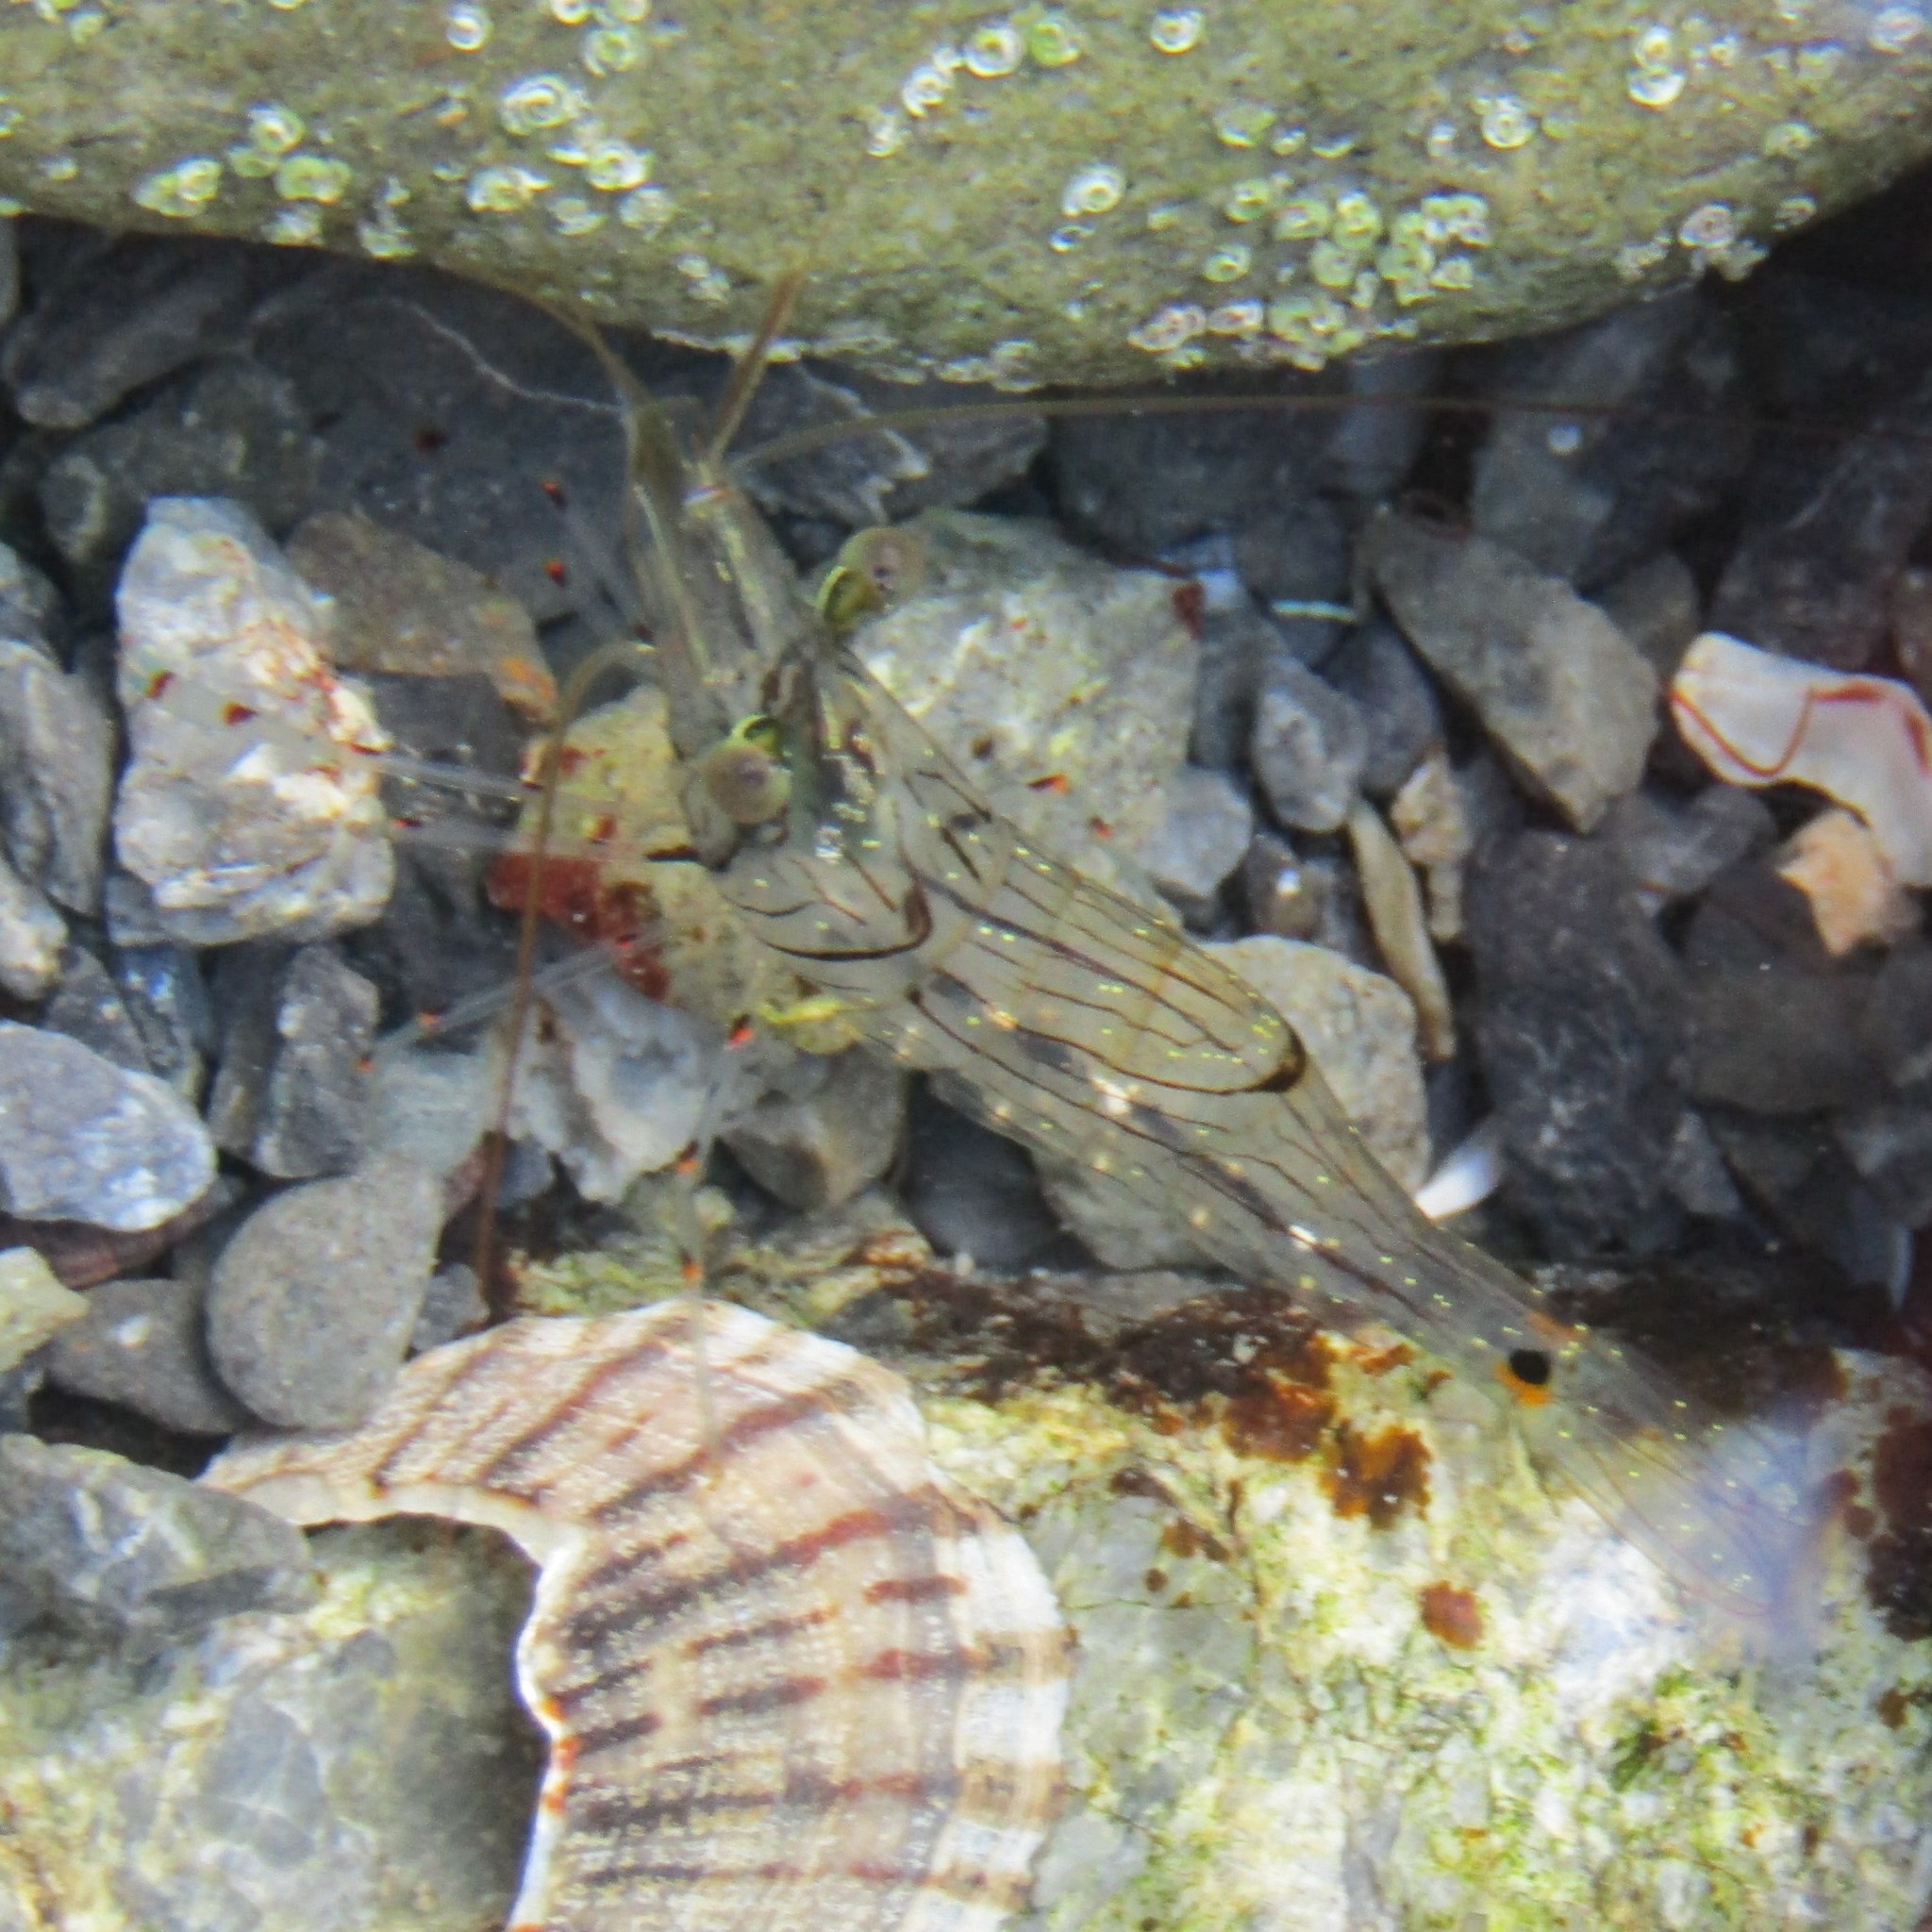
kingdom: Animalia
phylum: Arthropoda
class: Malacostraca
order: Decapoda
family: Palaemonidae
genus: Palaemon
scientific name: Palaemon affinis
